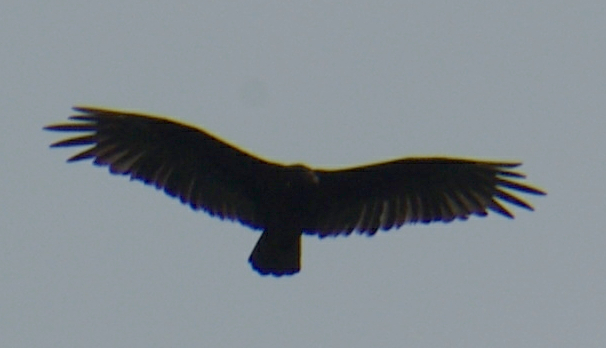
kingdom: Animalia
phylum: Chordata
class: Aves
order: Accipitriformes
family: Cathartidae
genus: Cathartes
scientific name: Cathartes aura
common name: Turkey vulture
